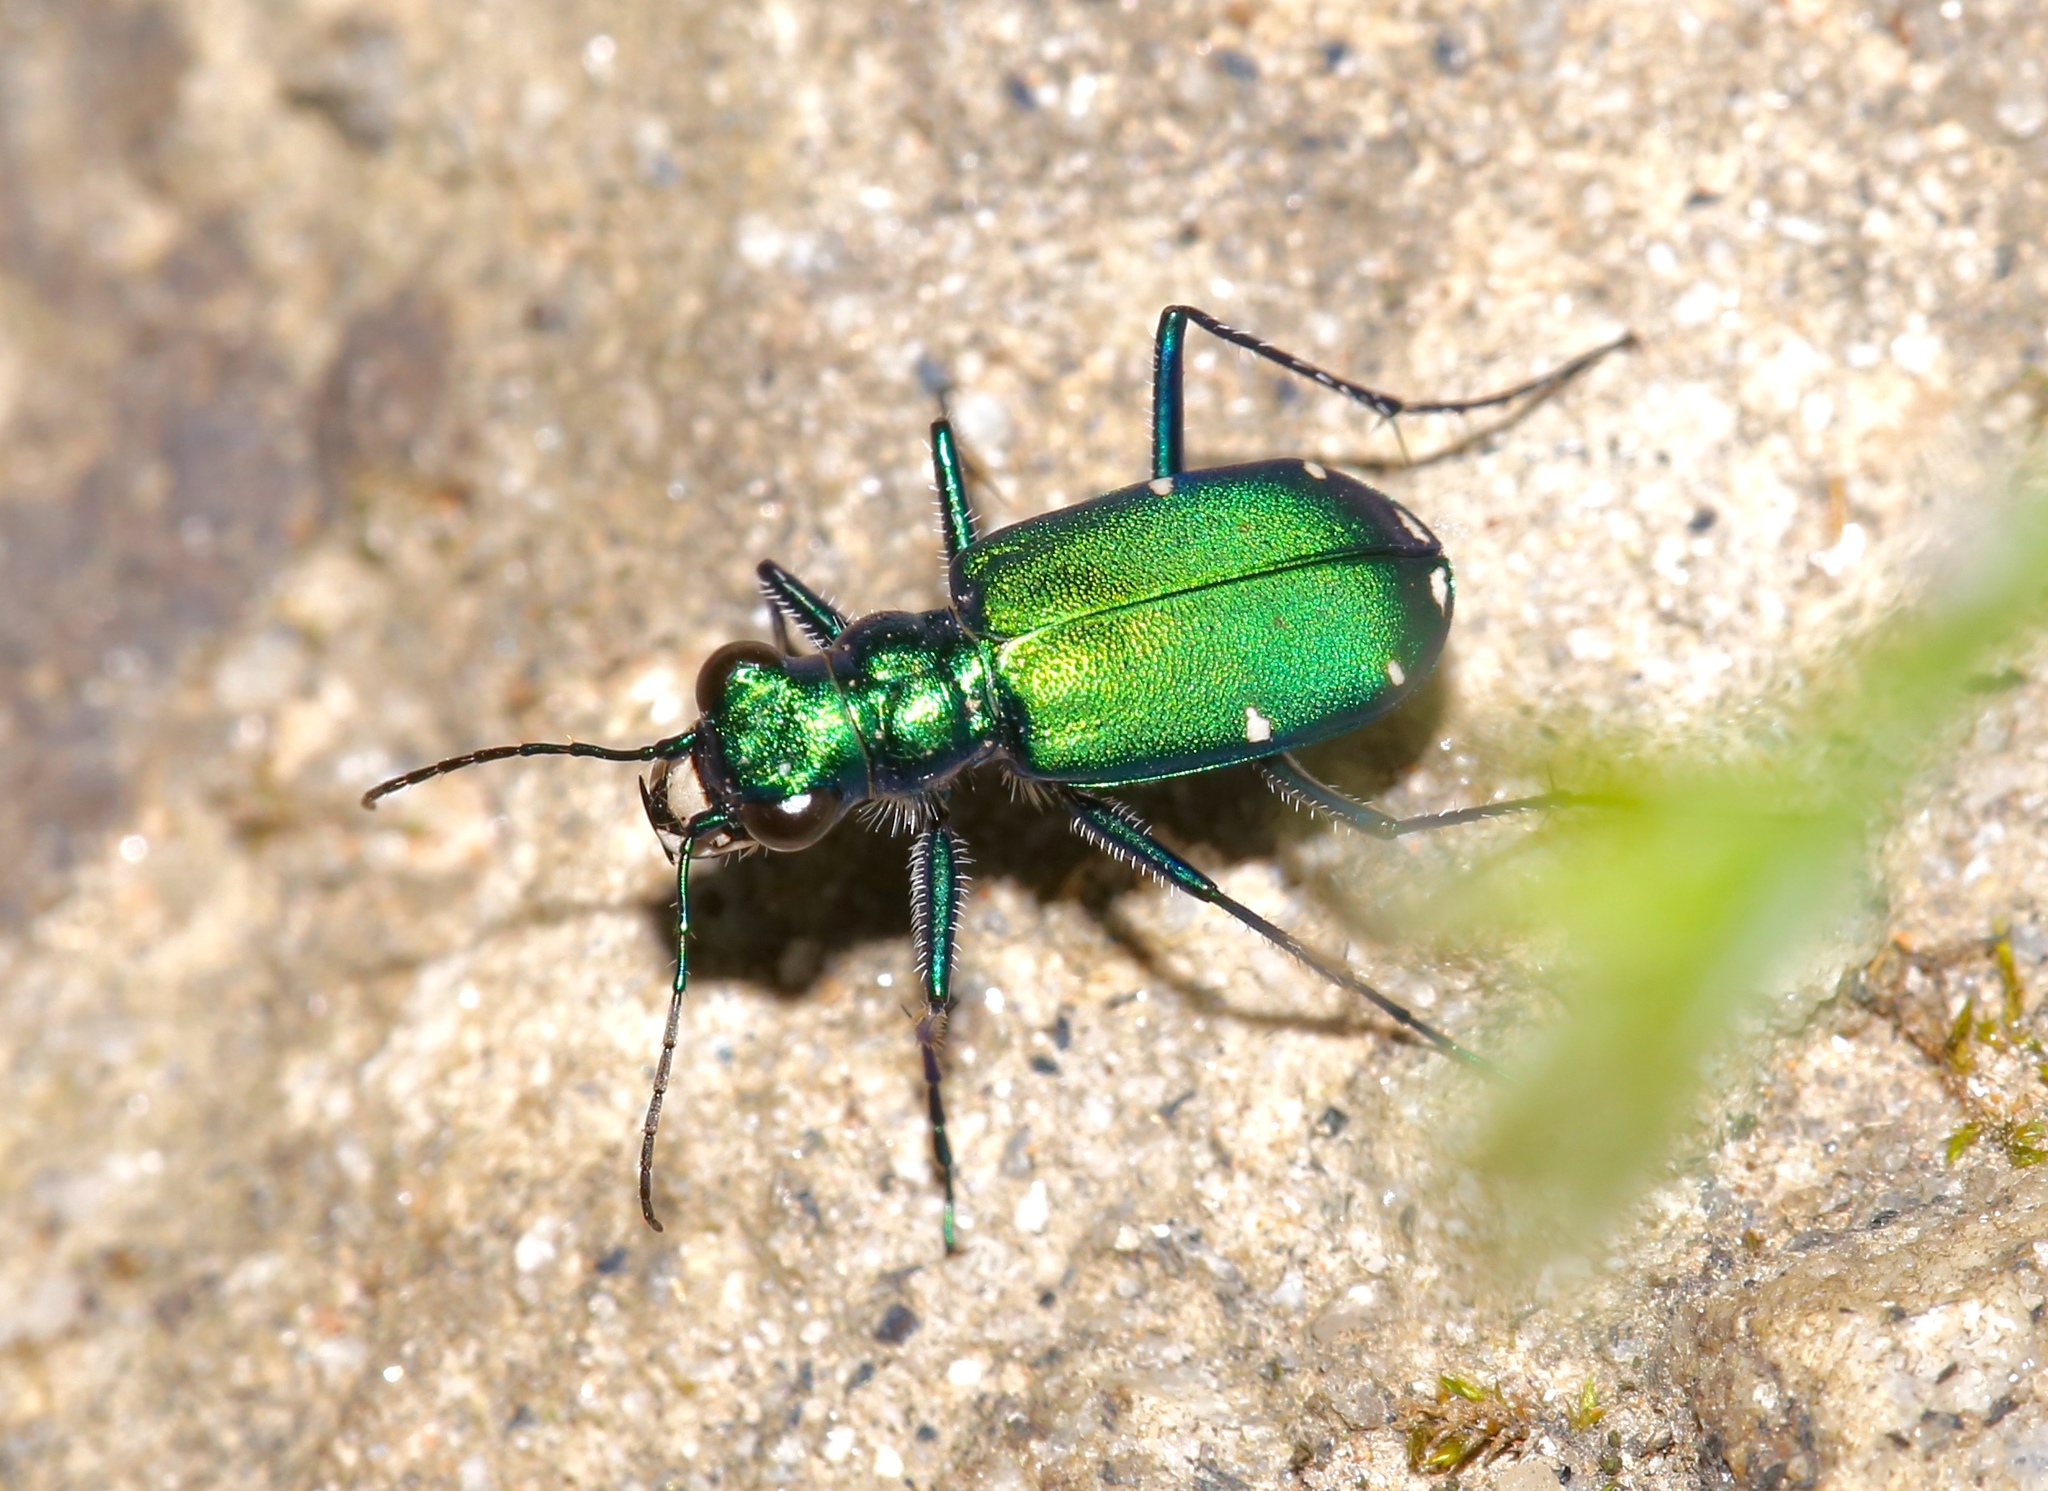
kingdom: Animalia
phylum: Arthropoda
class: Insecta
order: Coleoptera
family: Carabidae
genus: Cicindela
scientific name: Cicindela sexguttata
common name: Six-spotted tiger beetle
